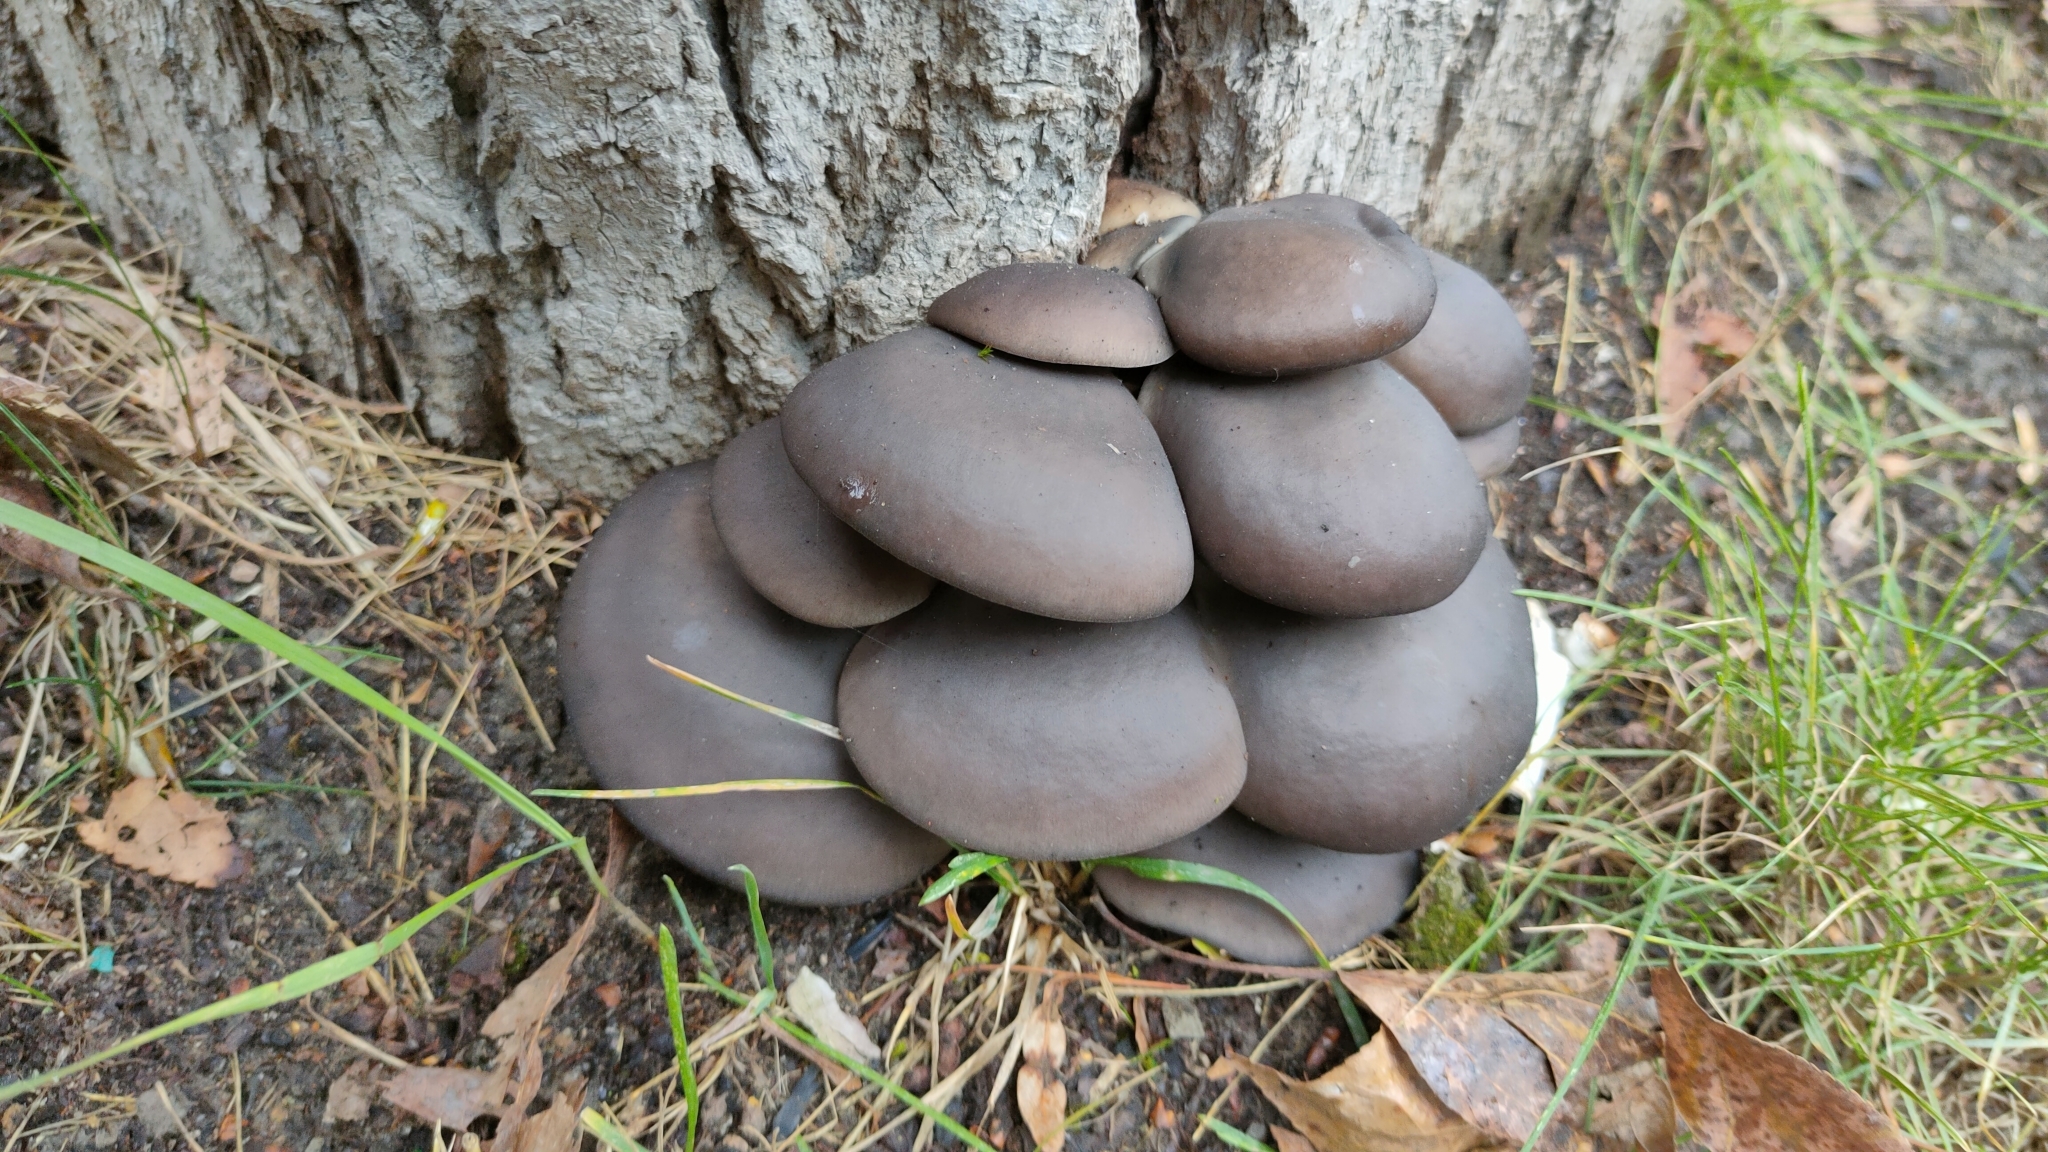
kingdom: Fungi
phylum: Basidiomycota
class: Agaricomycetes
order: Agaricales
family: Pleurotaceae
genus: Pleurotus
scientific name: Pleurotus ostreatus
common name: Oyster mushroom
